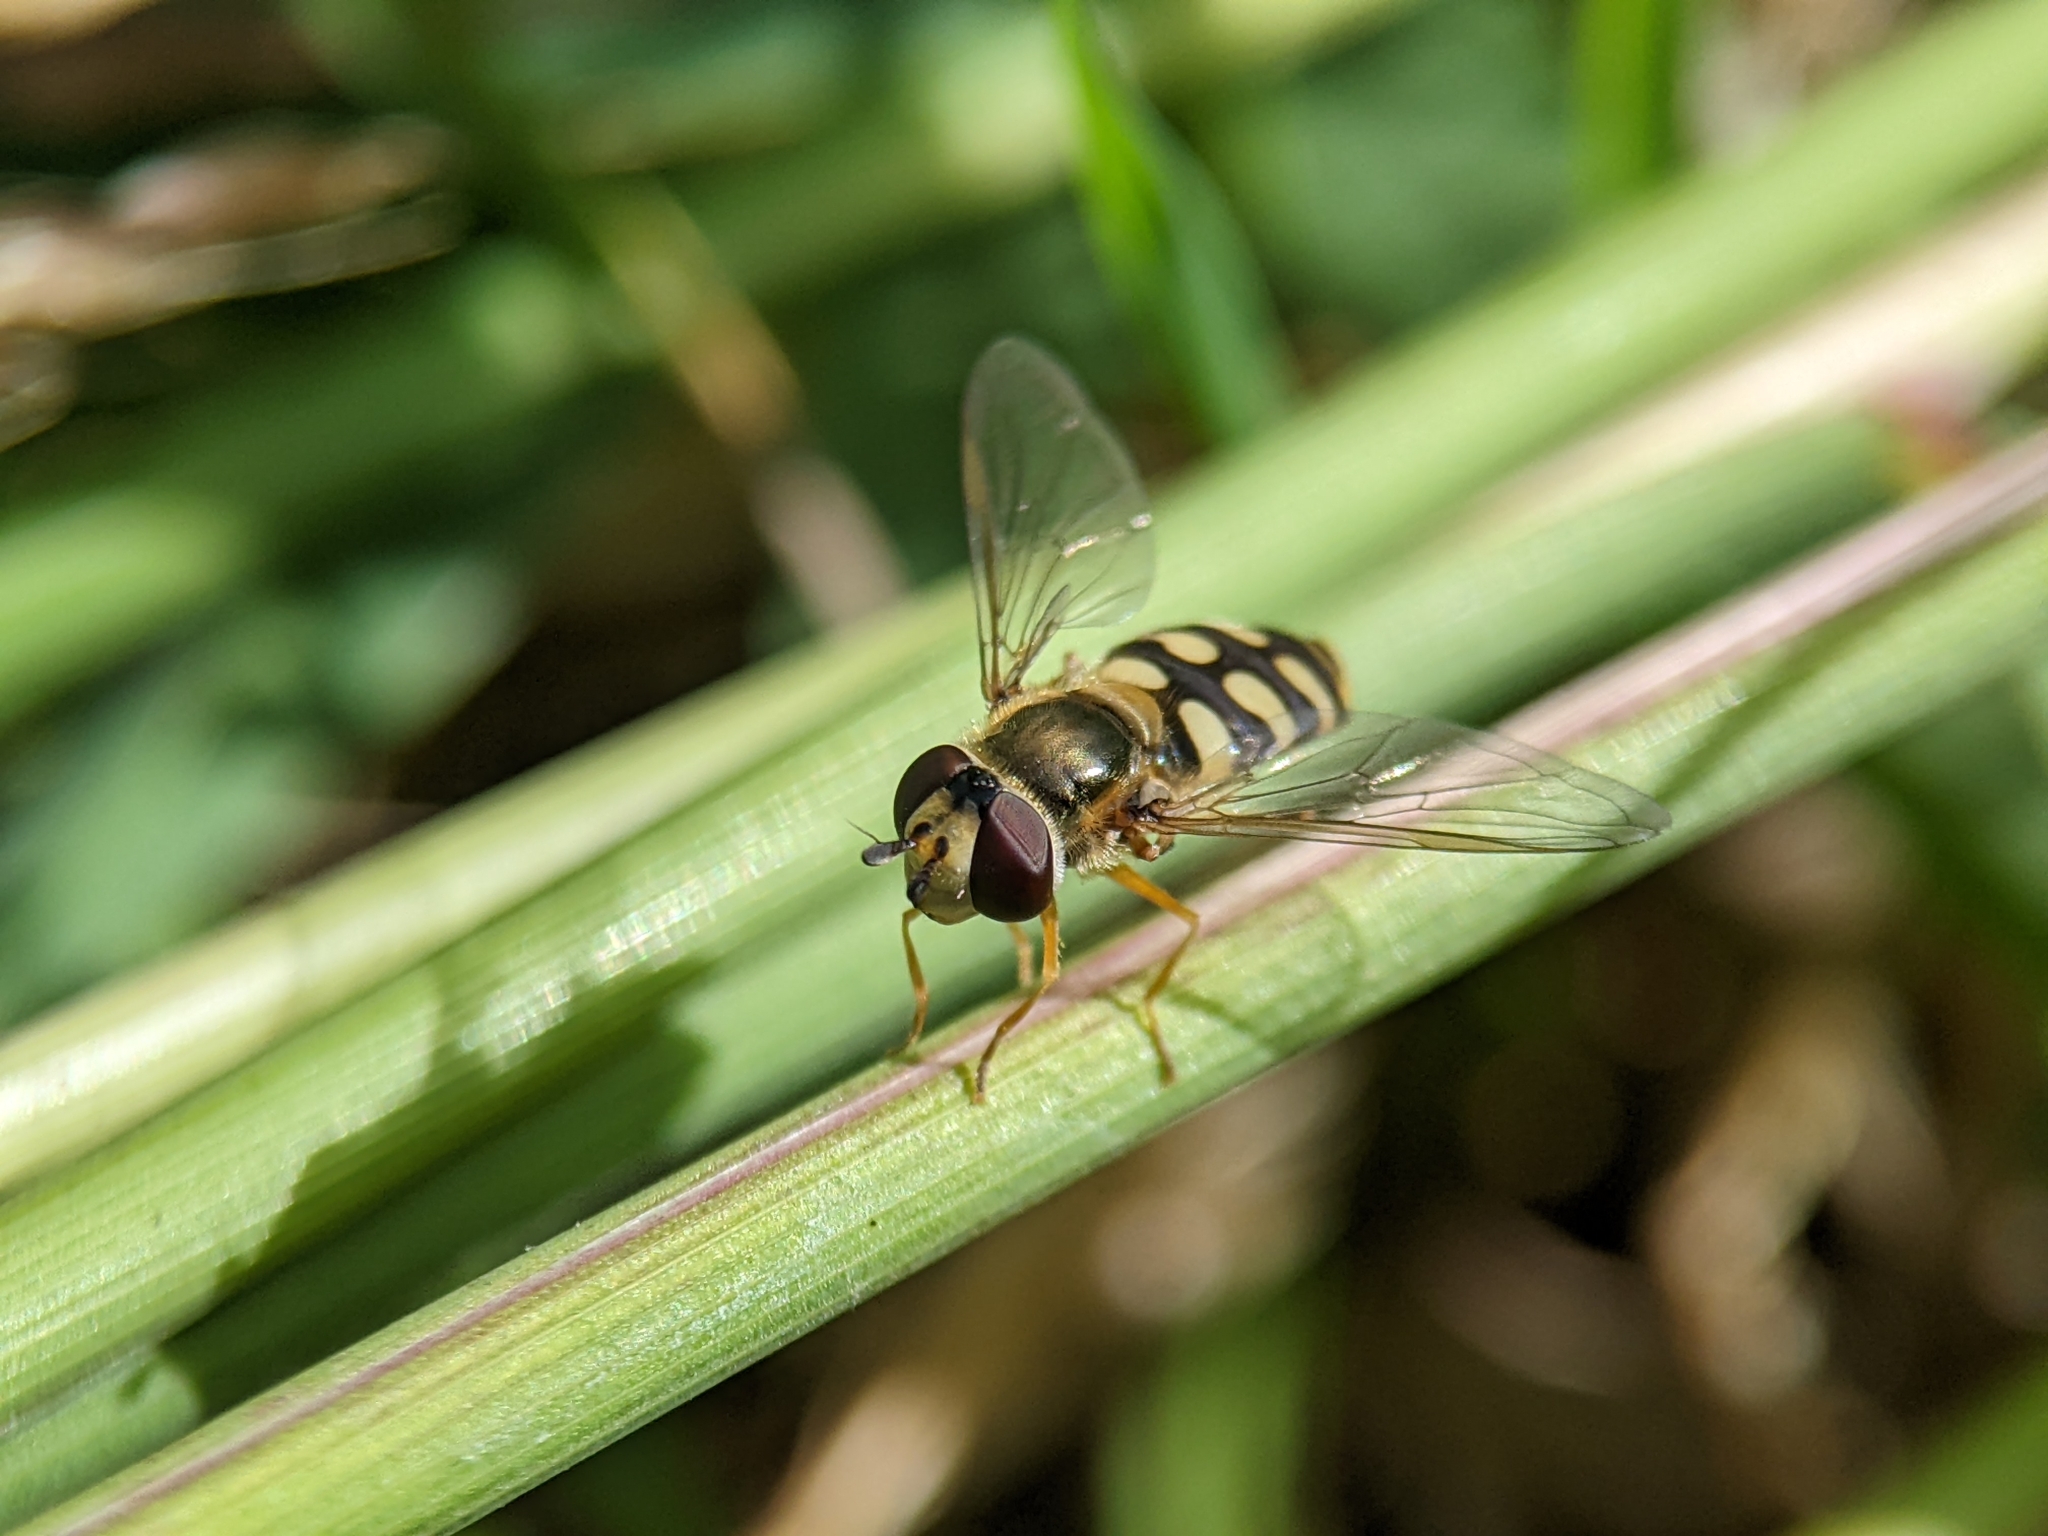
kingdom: Animalia
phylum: Arthropoda
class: Insecta
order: Diptera
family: Syrphidae
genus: Eupeodes
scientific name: Eupeodes corollae
